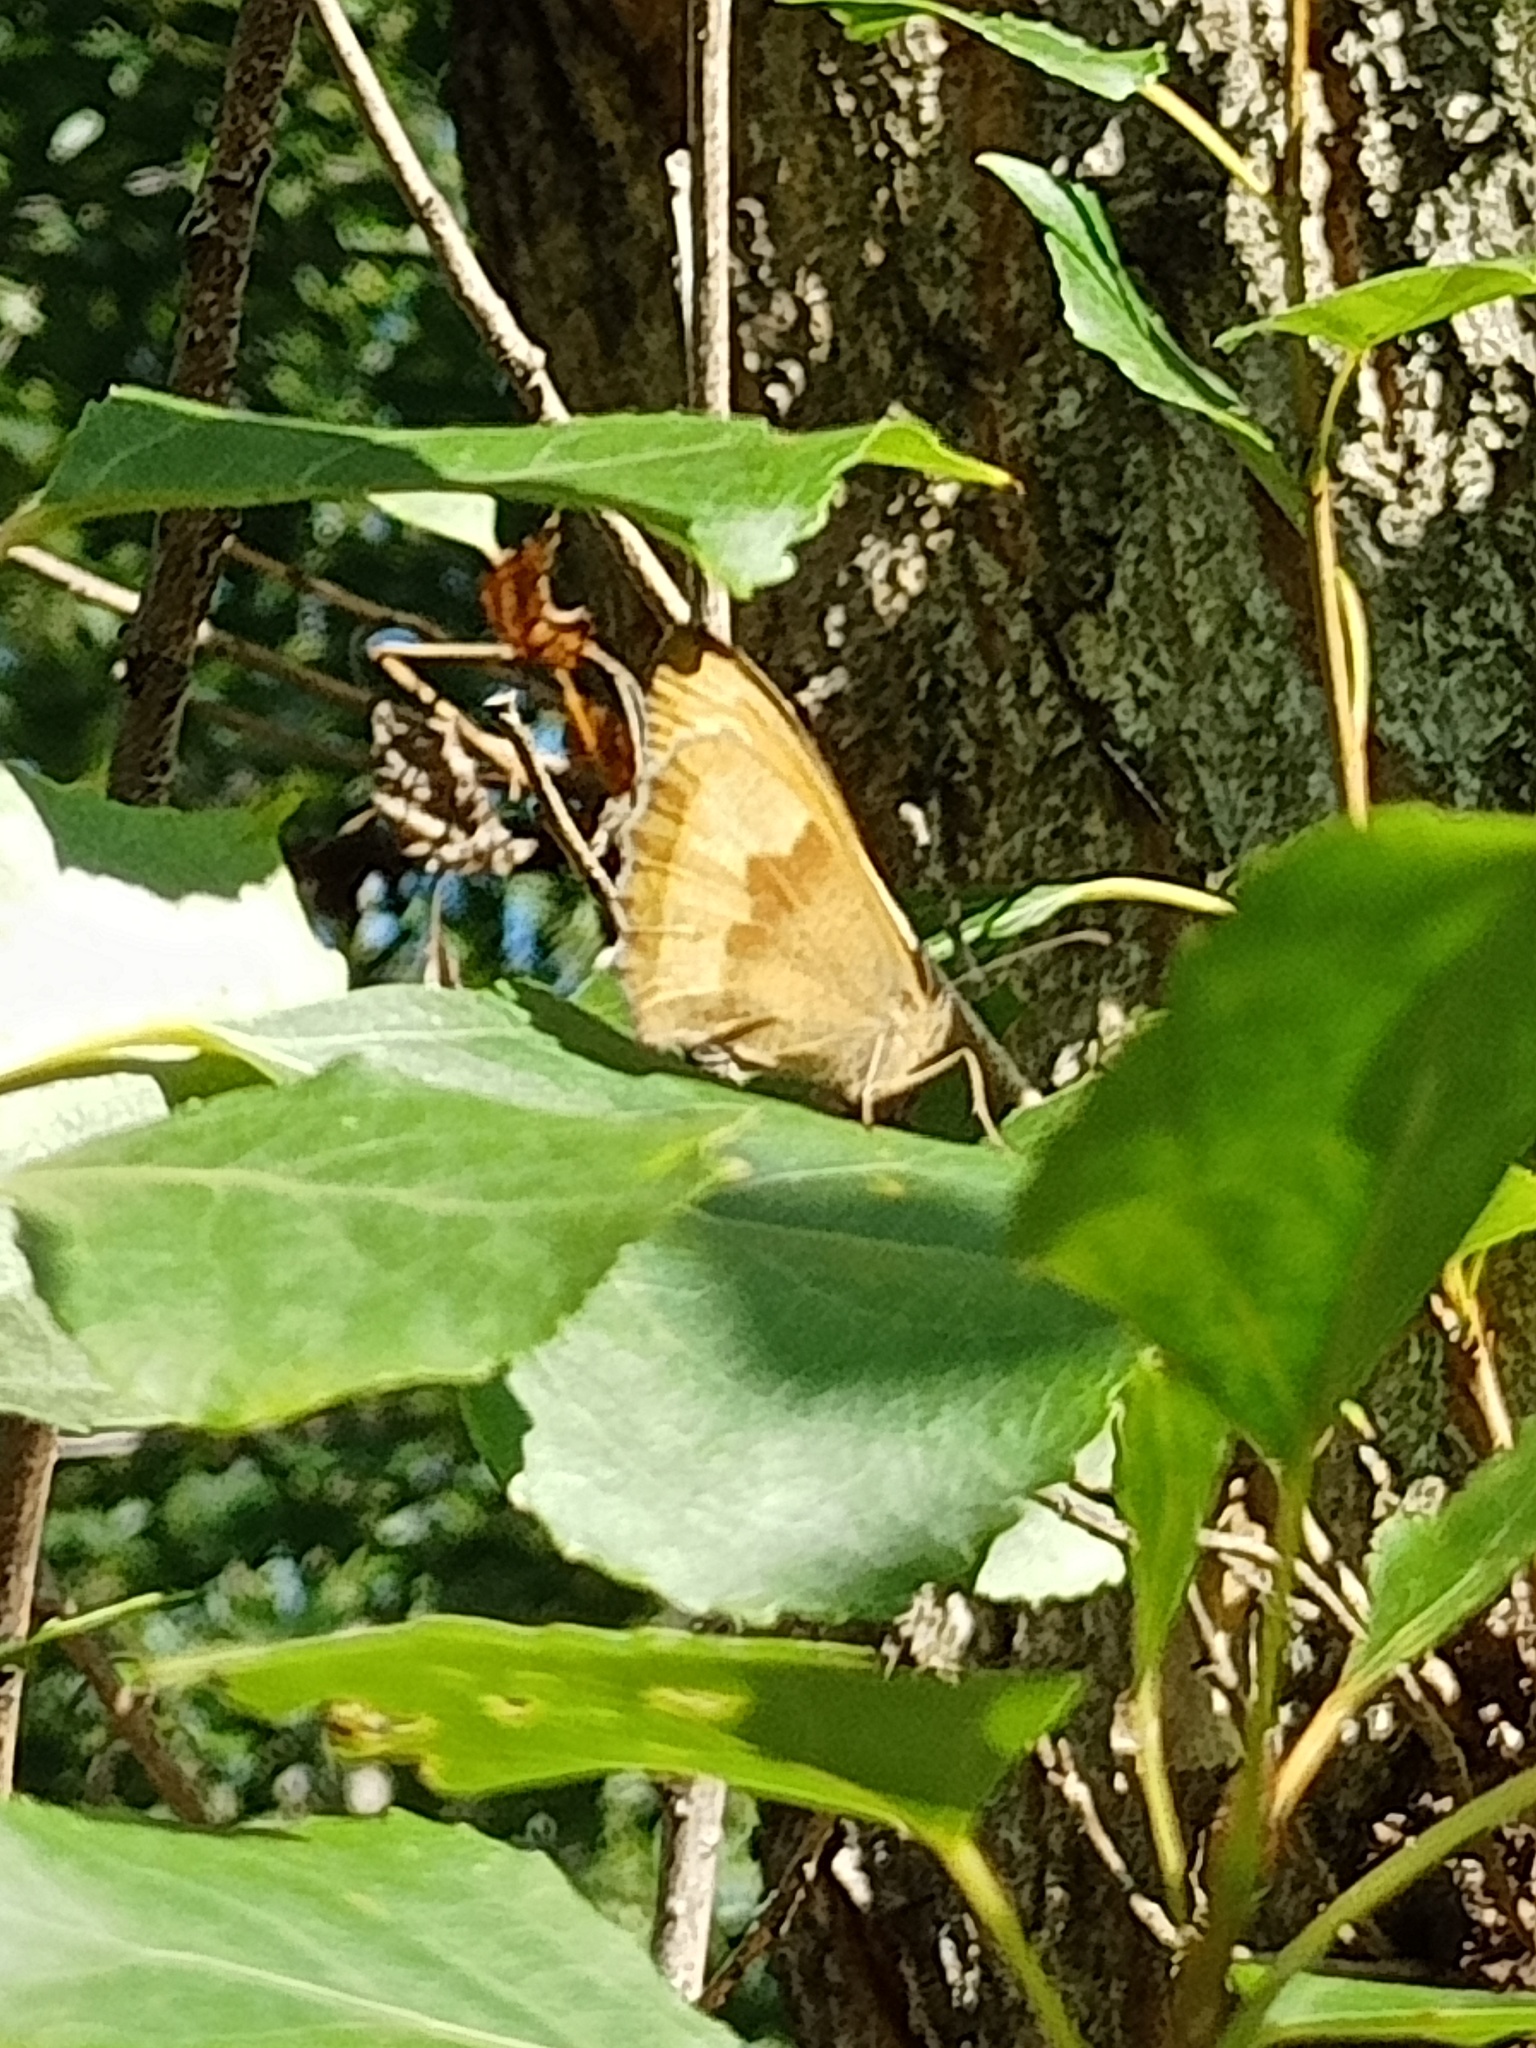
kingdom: Animalia
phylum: Arthropoda
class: Insecta
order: Lepidoptera
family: Nymphalidae
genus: Maniola
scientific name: Maniola jurtina
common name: Meadow brown
